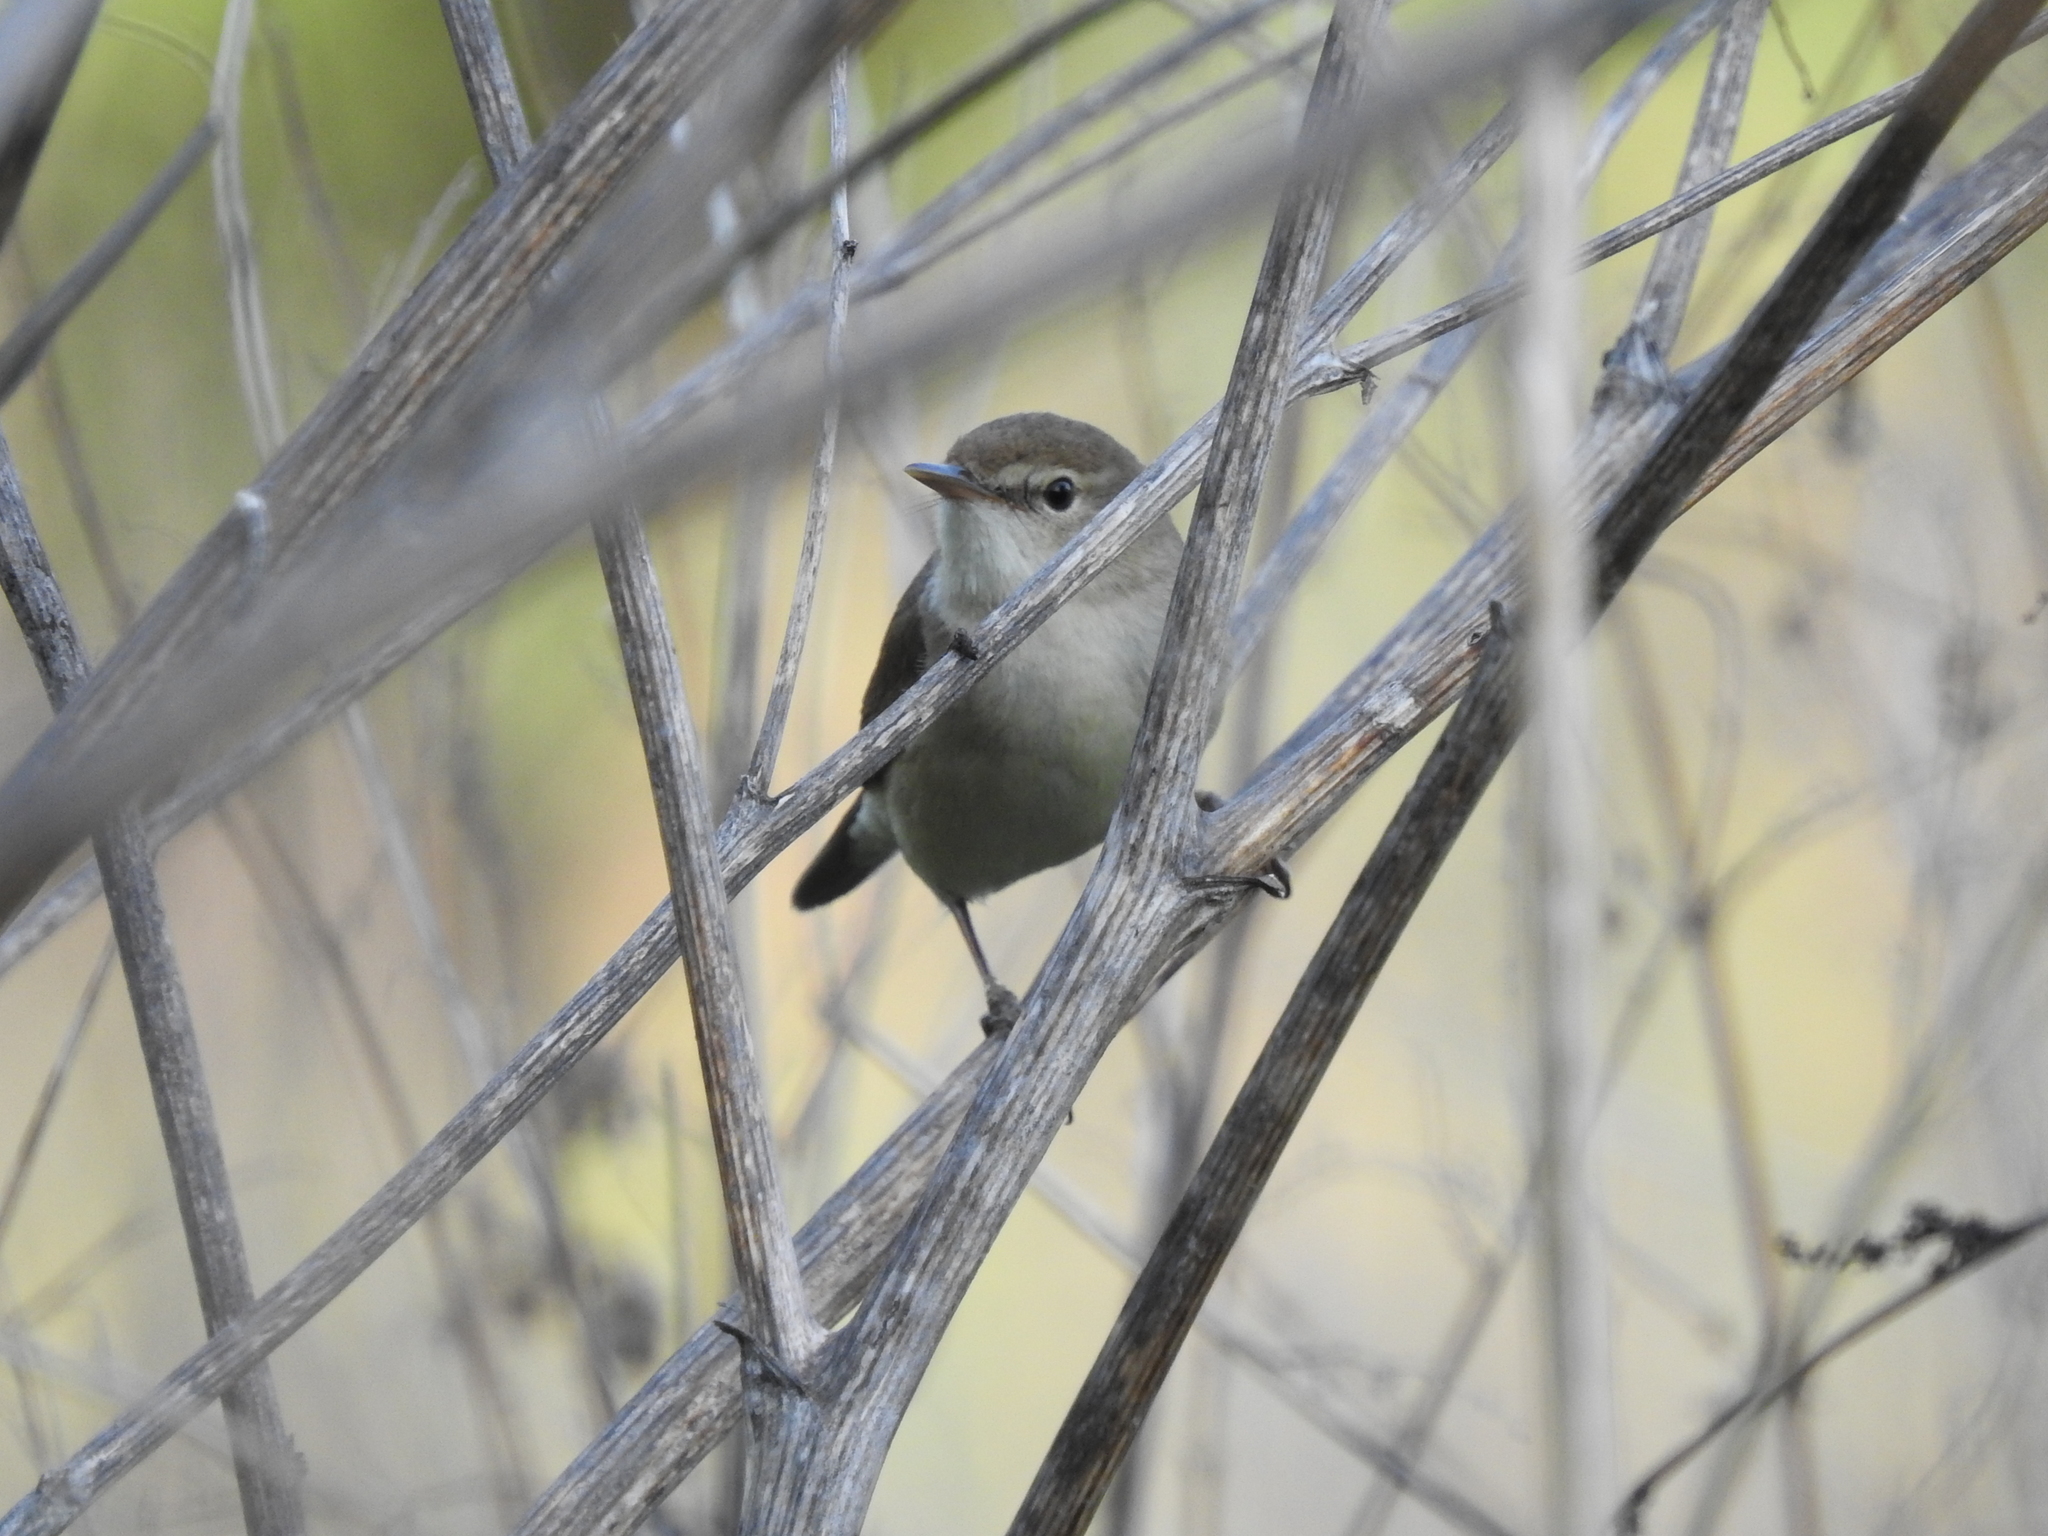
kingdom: Animalia
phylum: Chordata
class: Aves
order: Passeriformes
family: Acrocephalidae
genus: Acrocephalus
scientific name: Acrocephalus dumetorum
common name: Blyth's reed warbler
